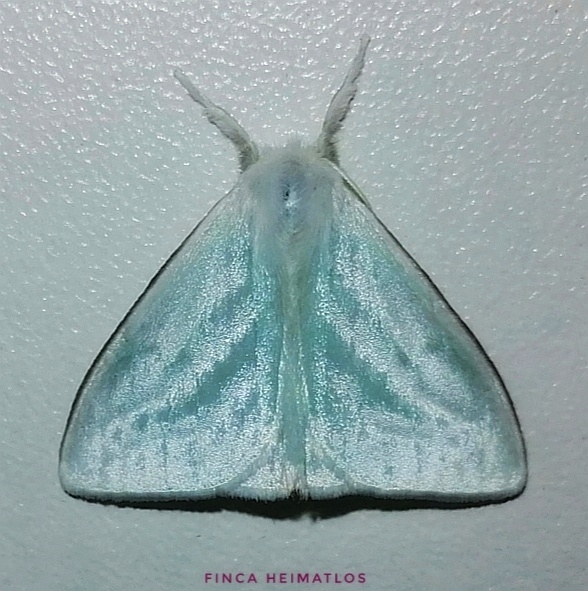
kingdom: Animalia
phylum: Arthropoda
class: Insecta
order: Lepidoptera
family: Erebidae
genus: Caviria
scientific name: Caviria regina
